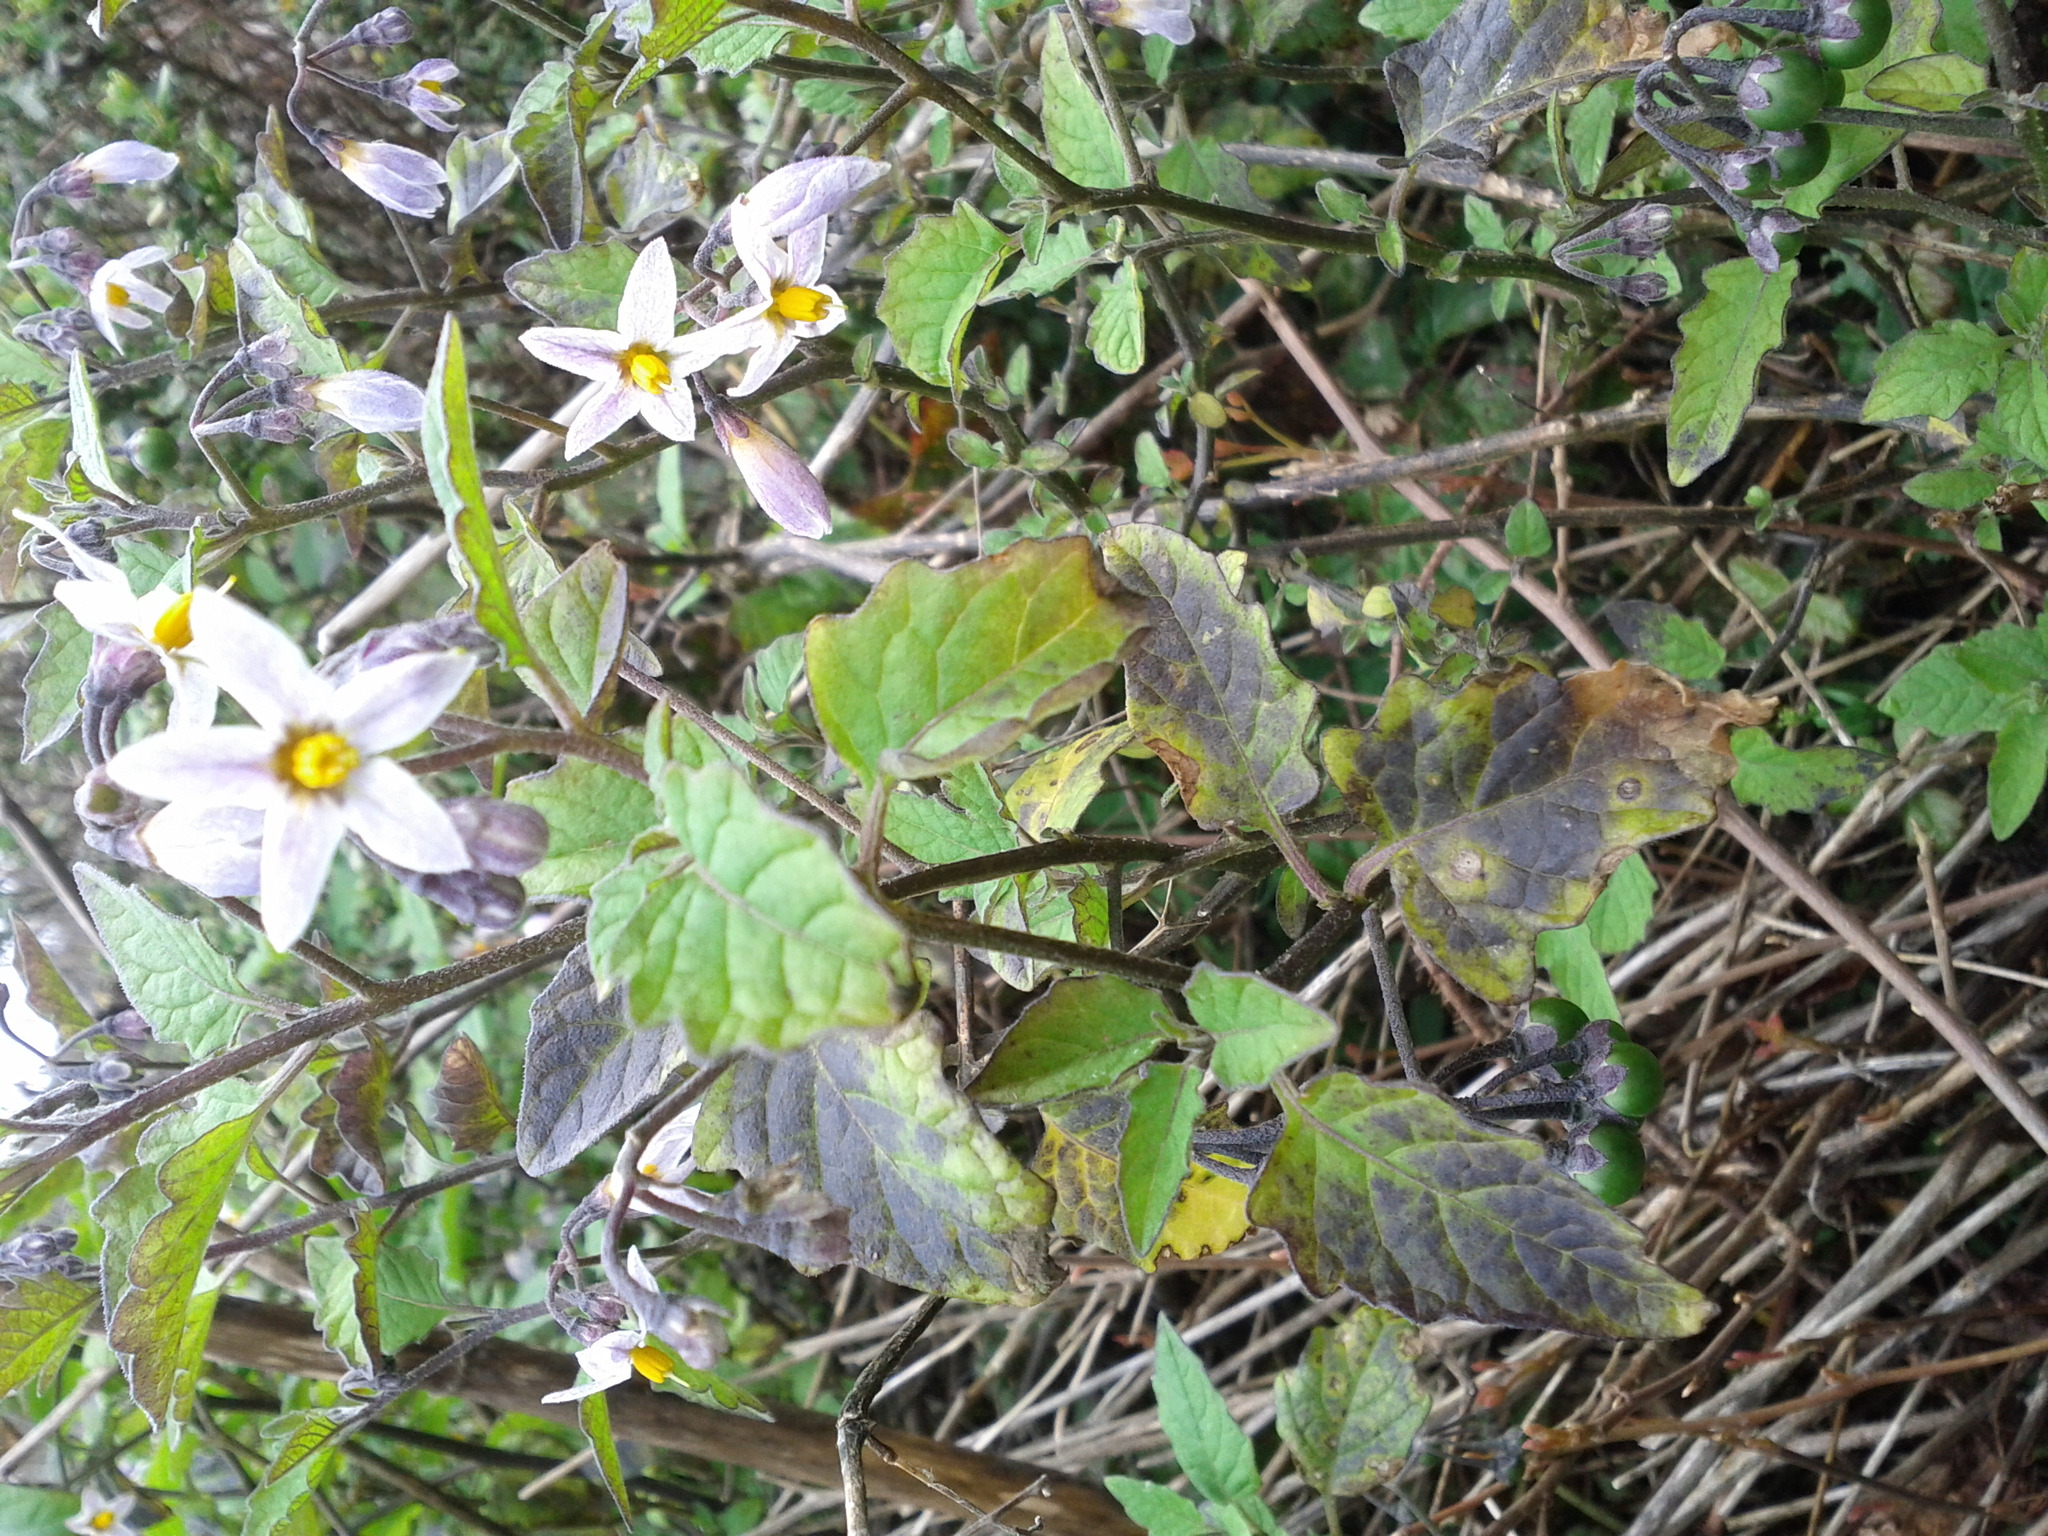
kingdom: Plantae
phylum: Tracheophyta
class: Magnoliopsida
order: Solanales
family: Solanaceae
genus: Solanum
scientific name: Solanum furcatum
